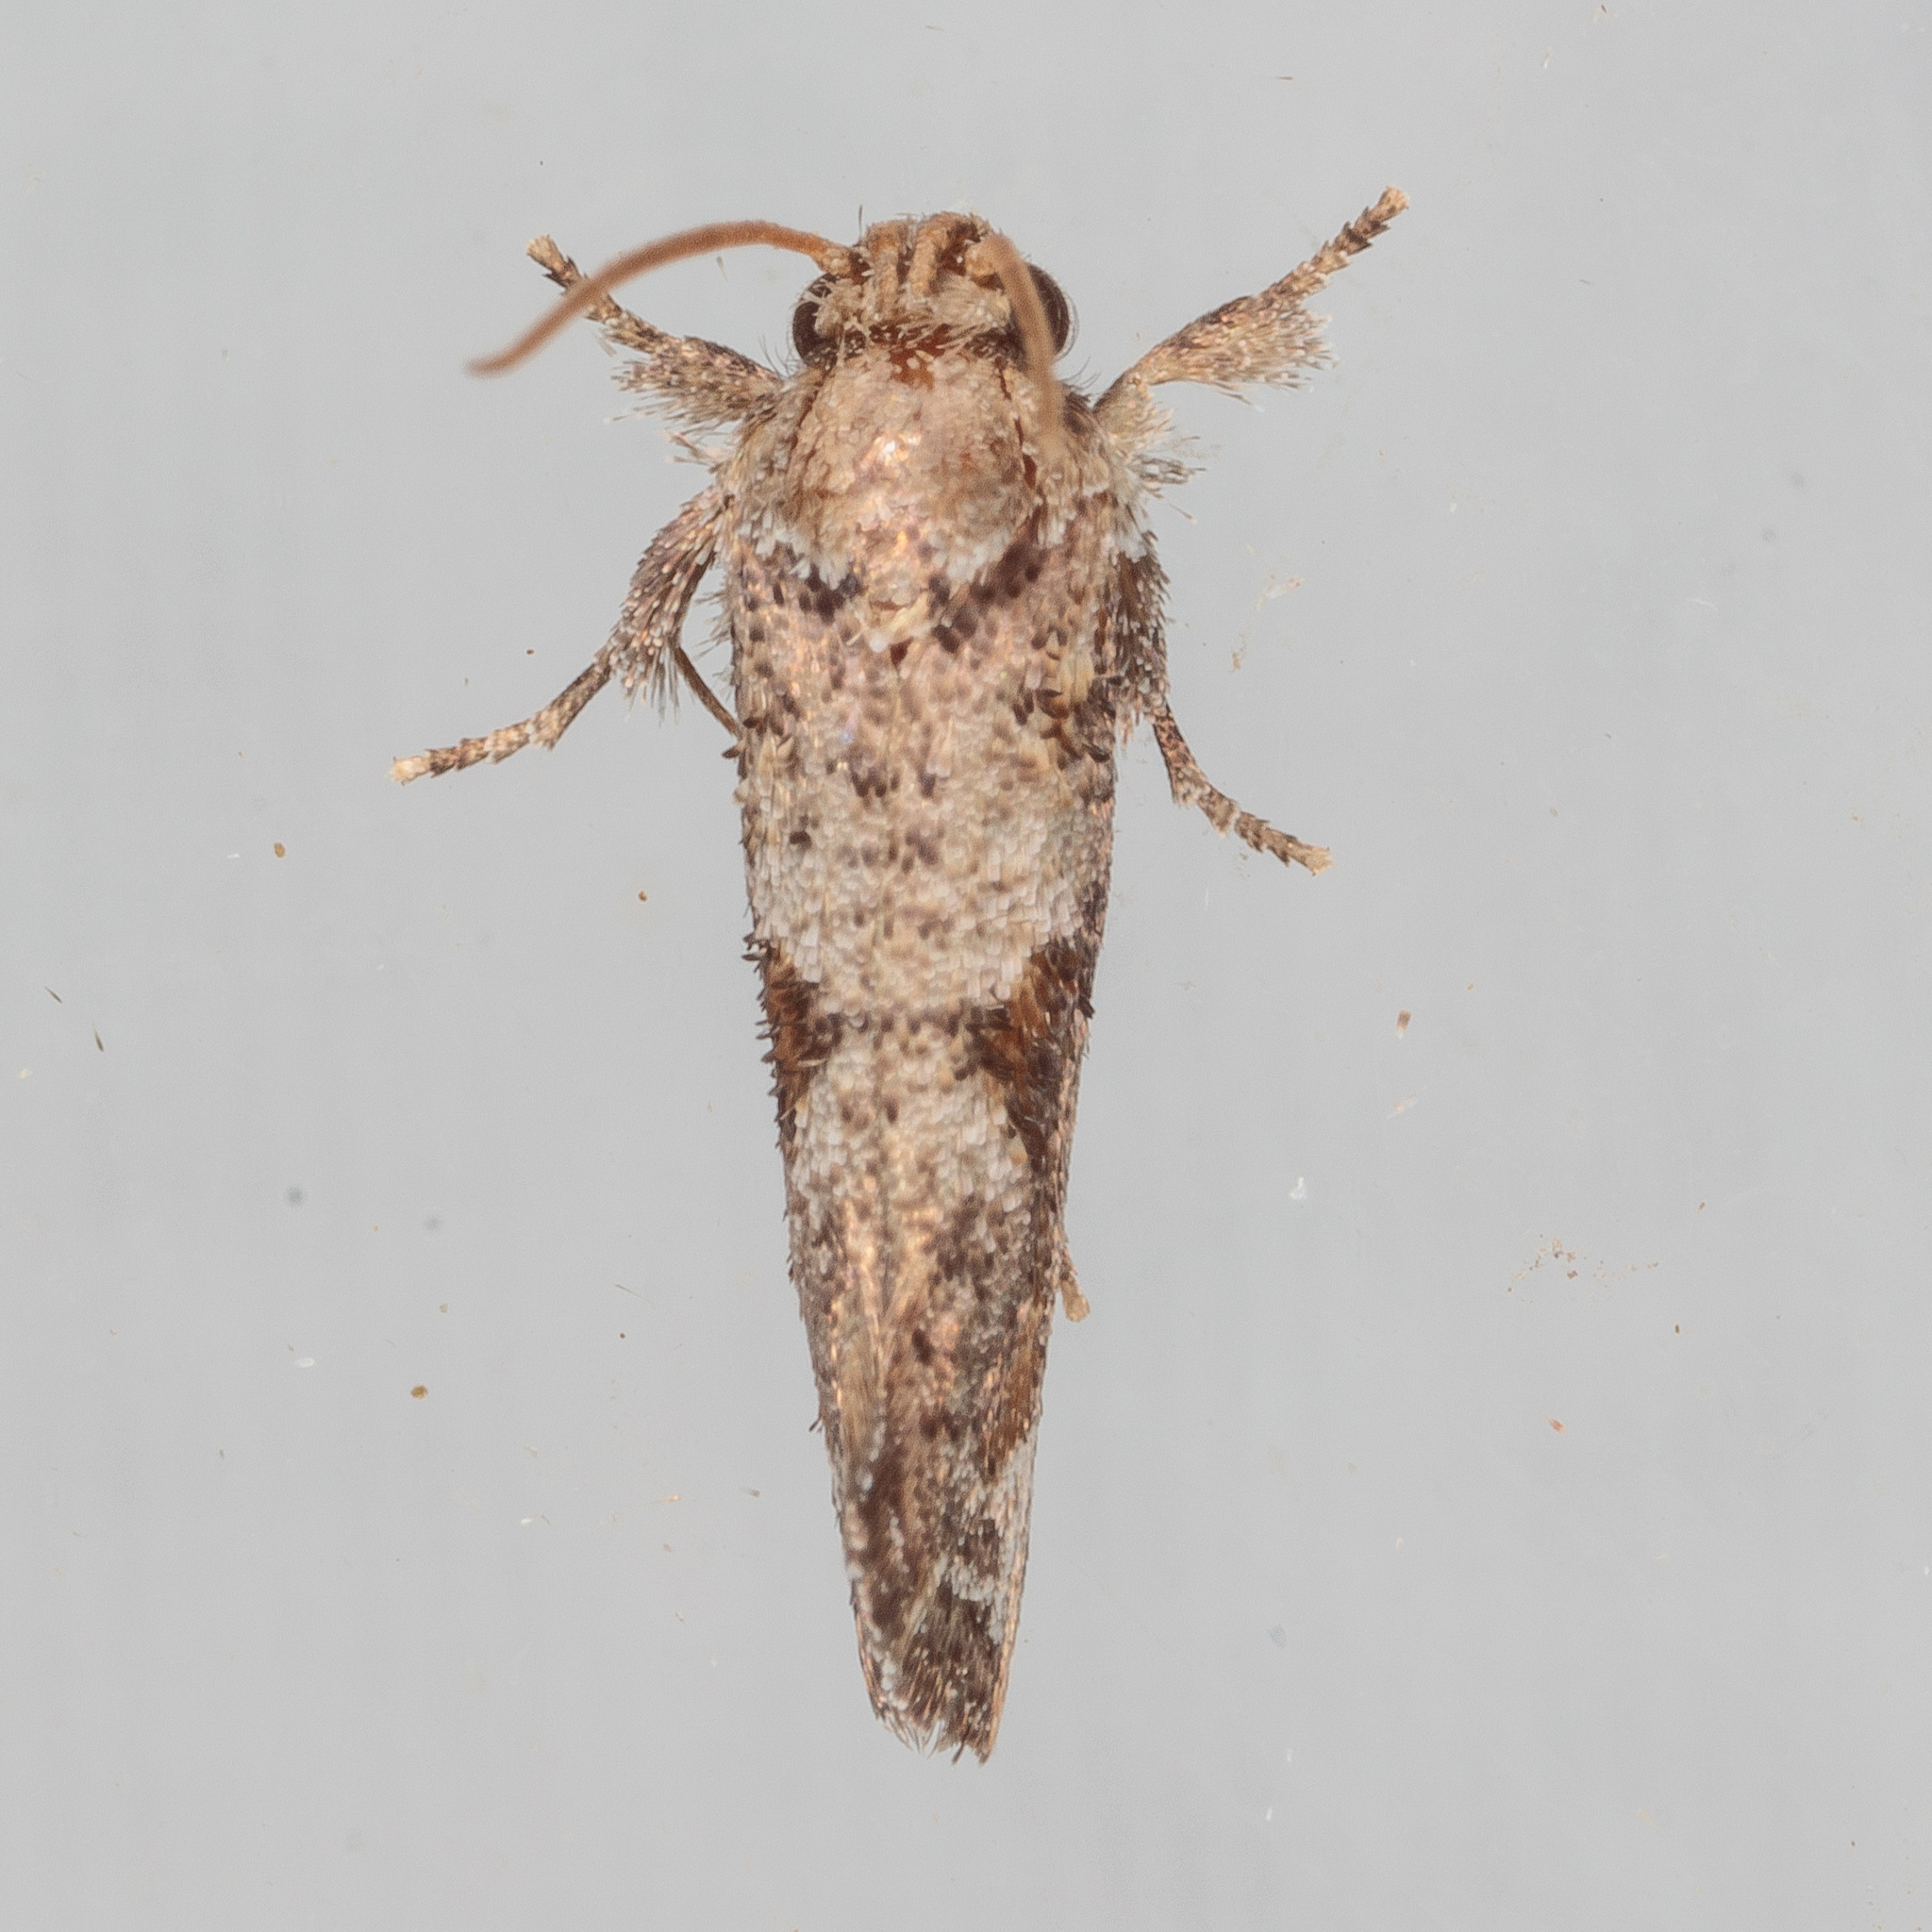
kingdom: Animalia
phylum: Arthropoda
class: Insecta
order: Lepidoptera
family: Tineidae
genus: Acrolophus
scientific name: Acrolophus piger
